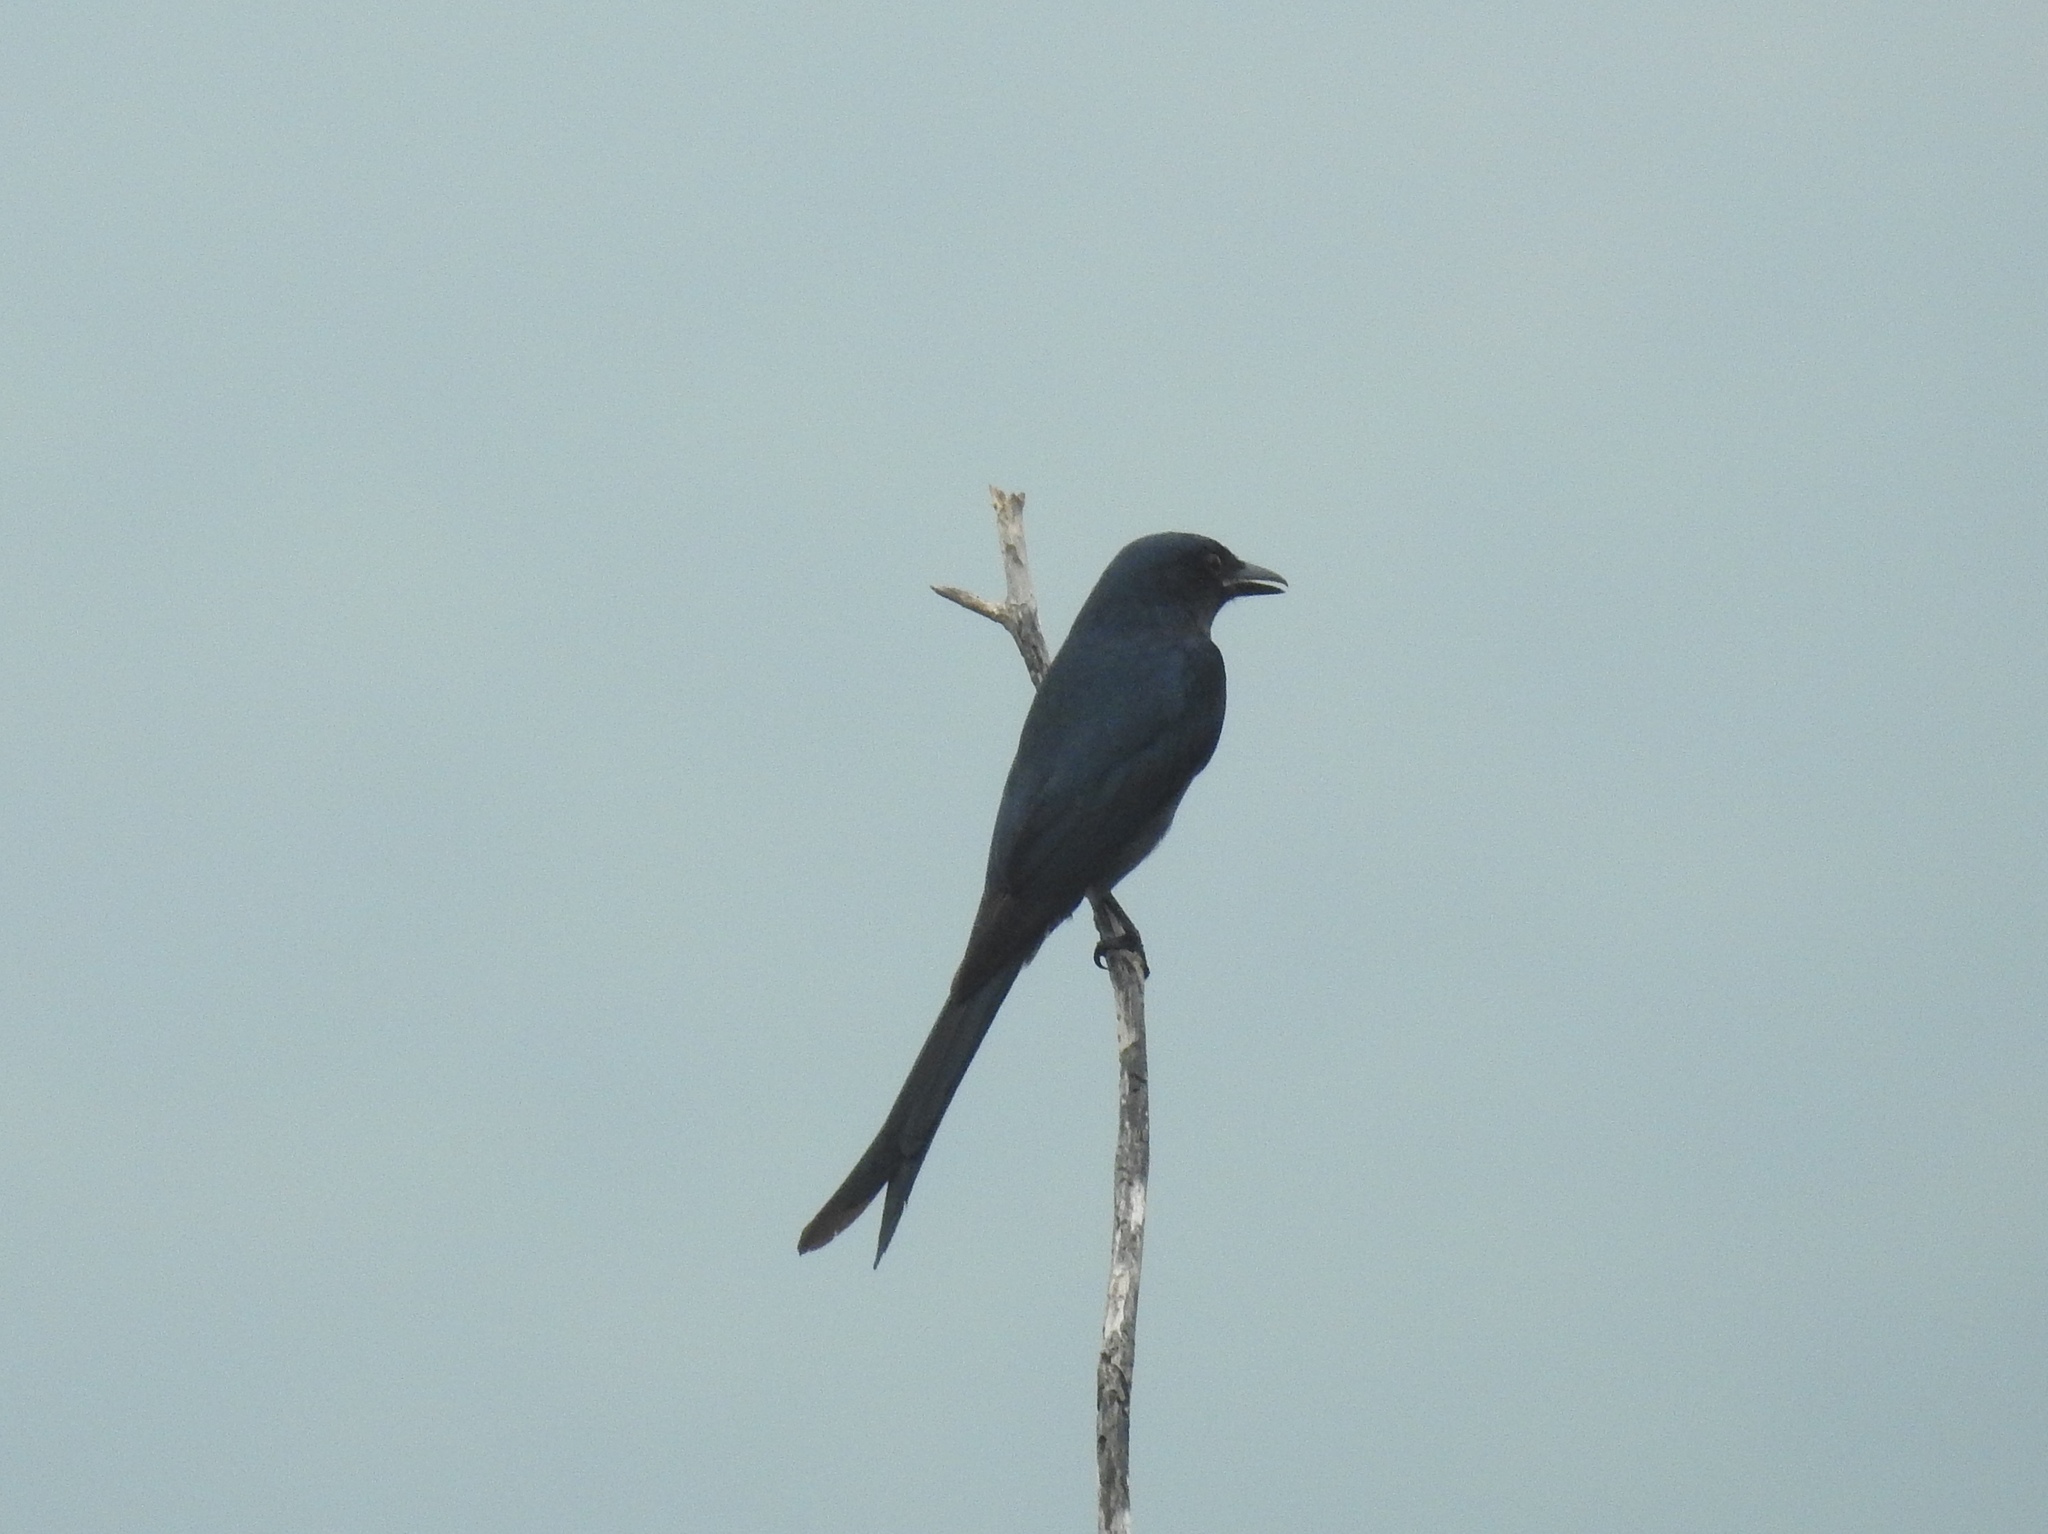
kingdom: Animalia
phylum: Chordata
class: Aves
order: Passeriformes
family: Dicruridae
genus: Dicrurus
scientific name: Dicrurus macrocercus
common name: Black drongo
